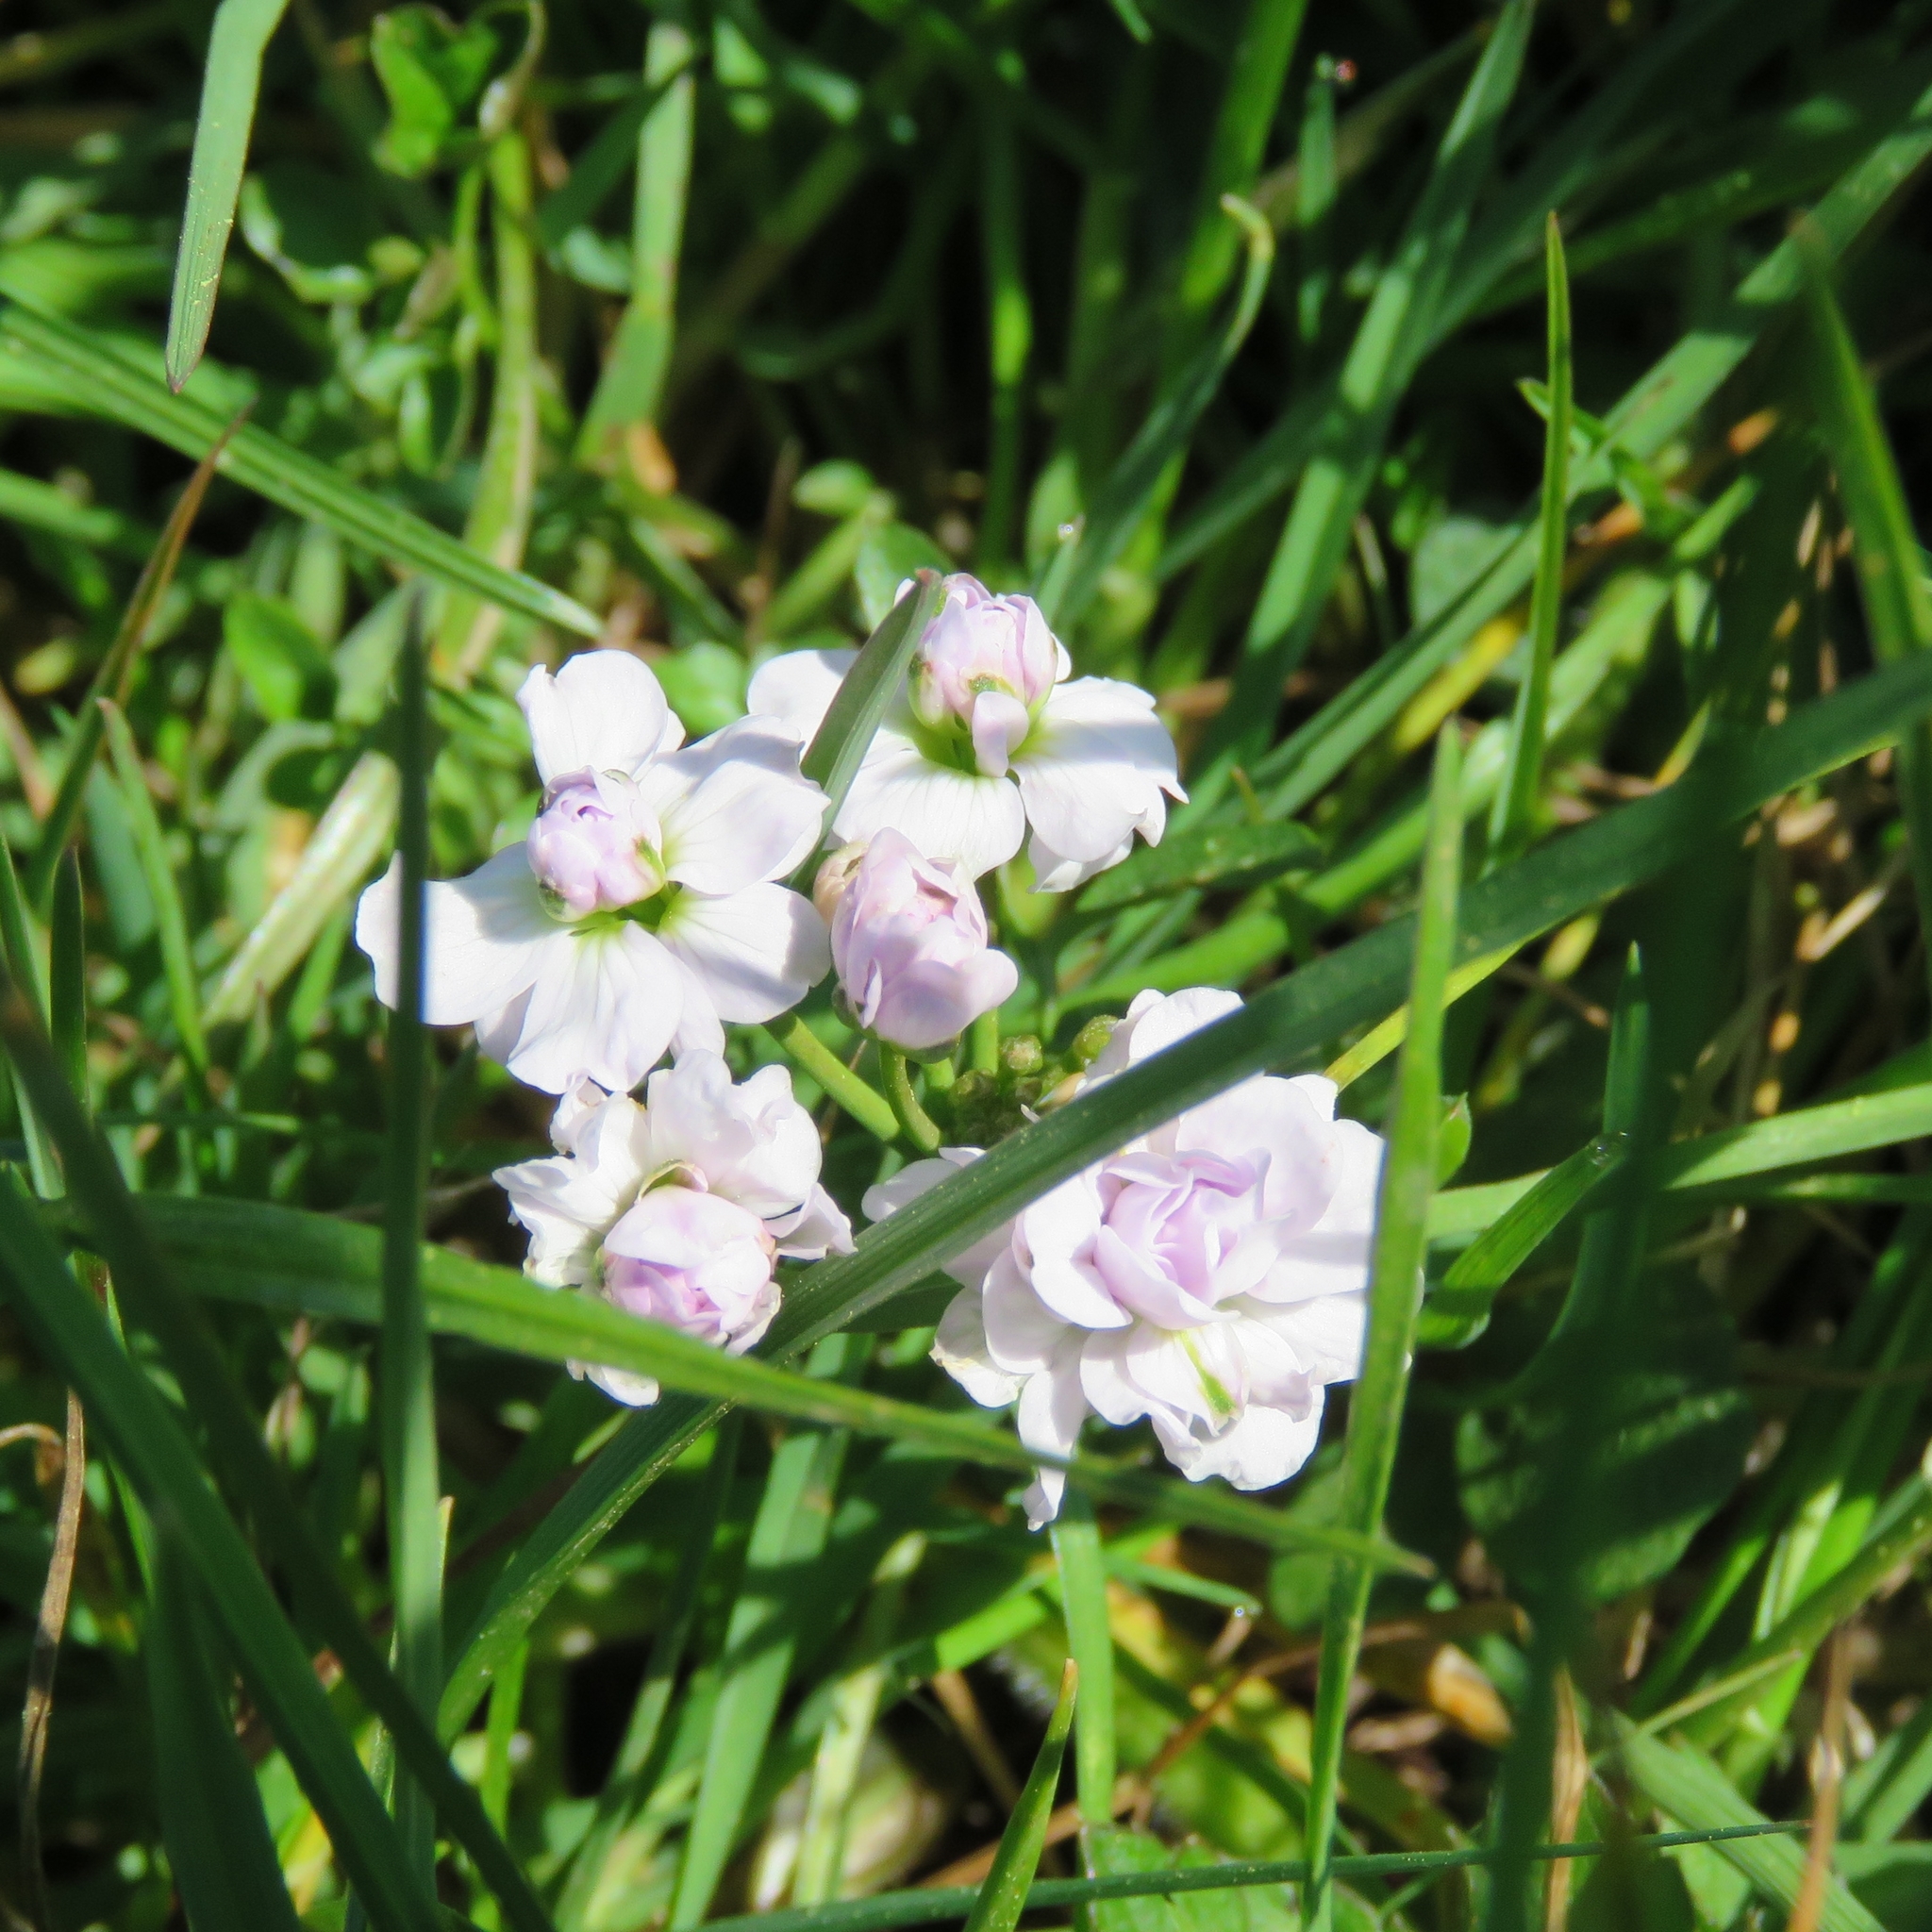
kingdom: Plantae
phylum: Tracheophyta
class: Magnoliopsida
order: Brassicales
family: Brassicaceae
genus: Cardamine
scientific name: Cardamine pratensis
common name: Cuckoo flower
